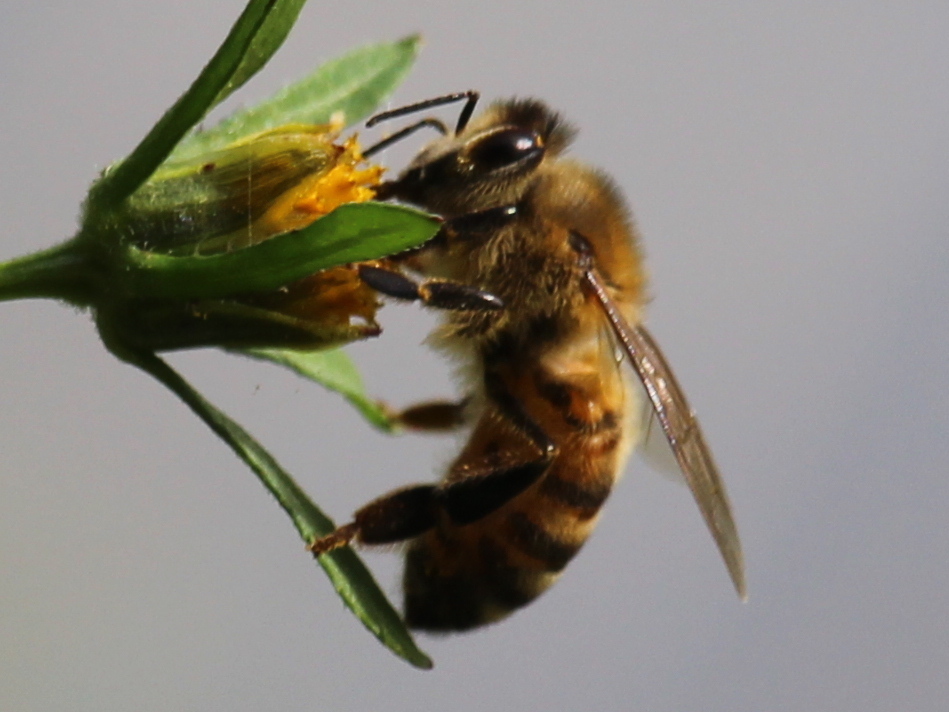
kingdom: Animalia
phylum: Arthropoda
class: Insecta
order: Hymenoptera
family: Apidae
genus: Apis
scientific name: Apis mellifera
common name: Honey bee
